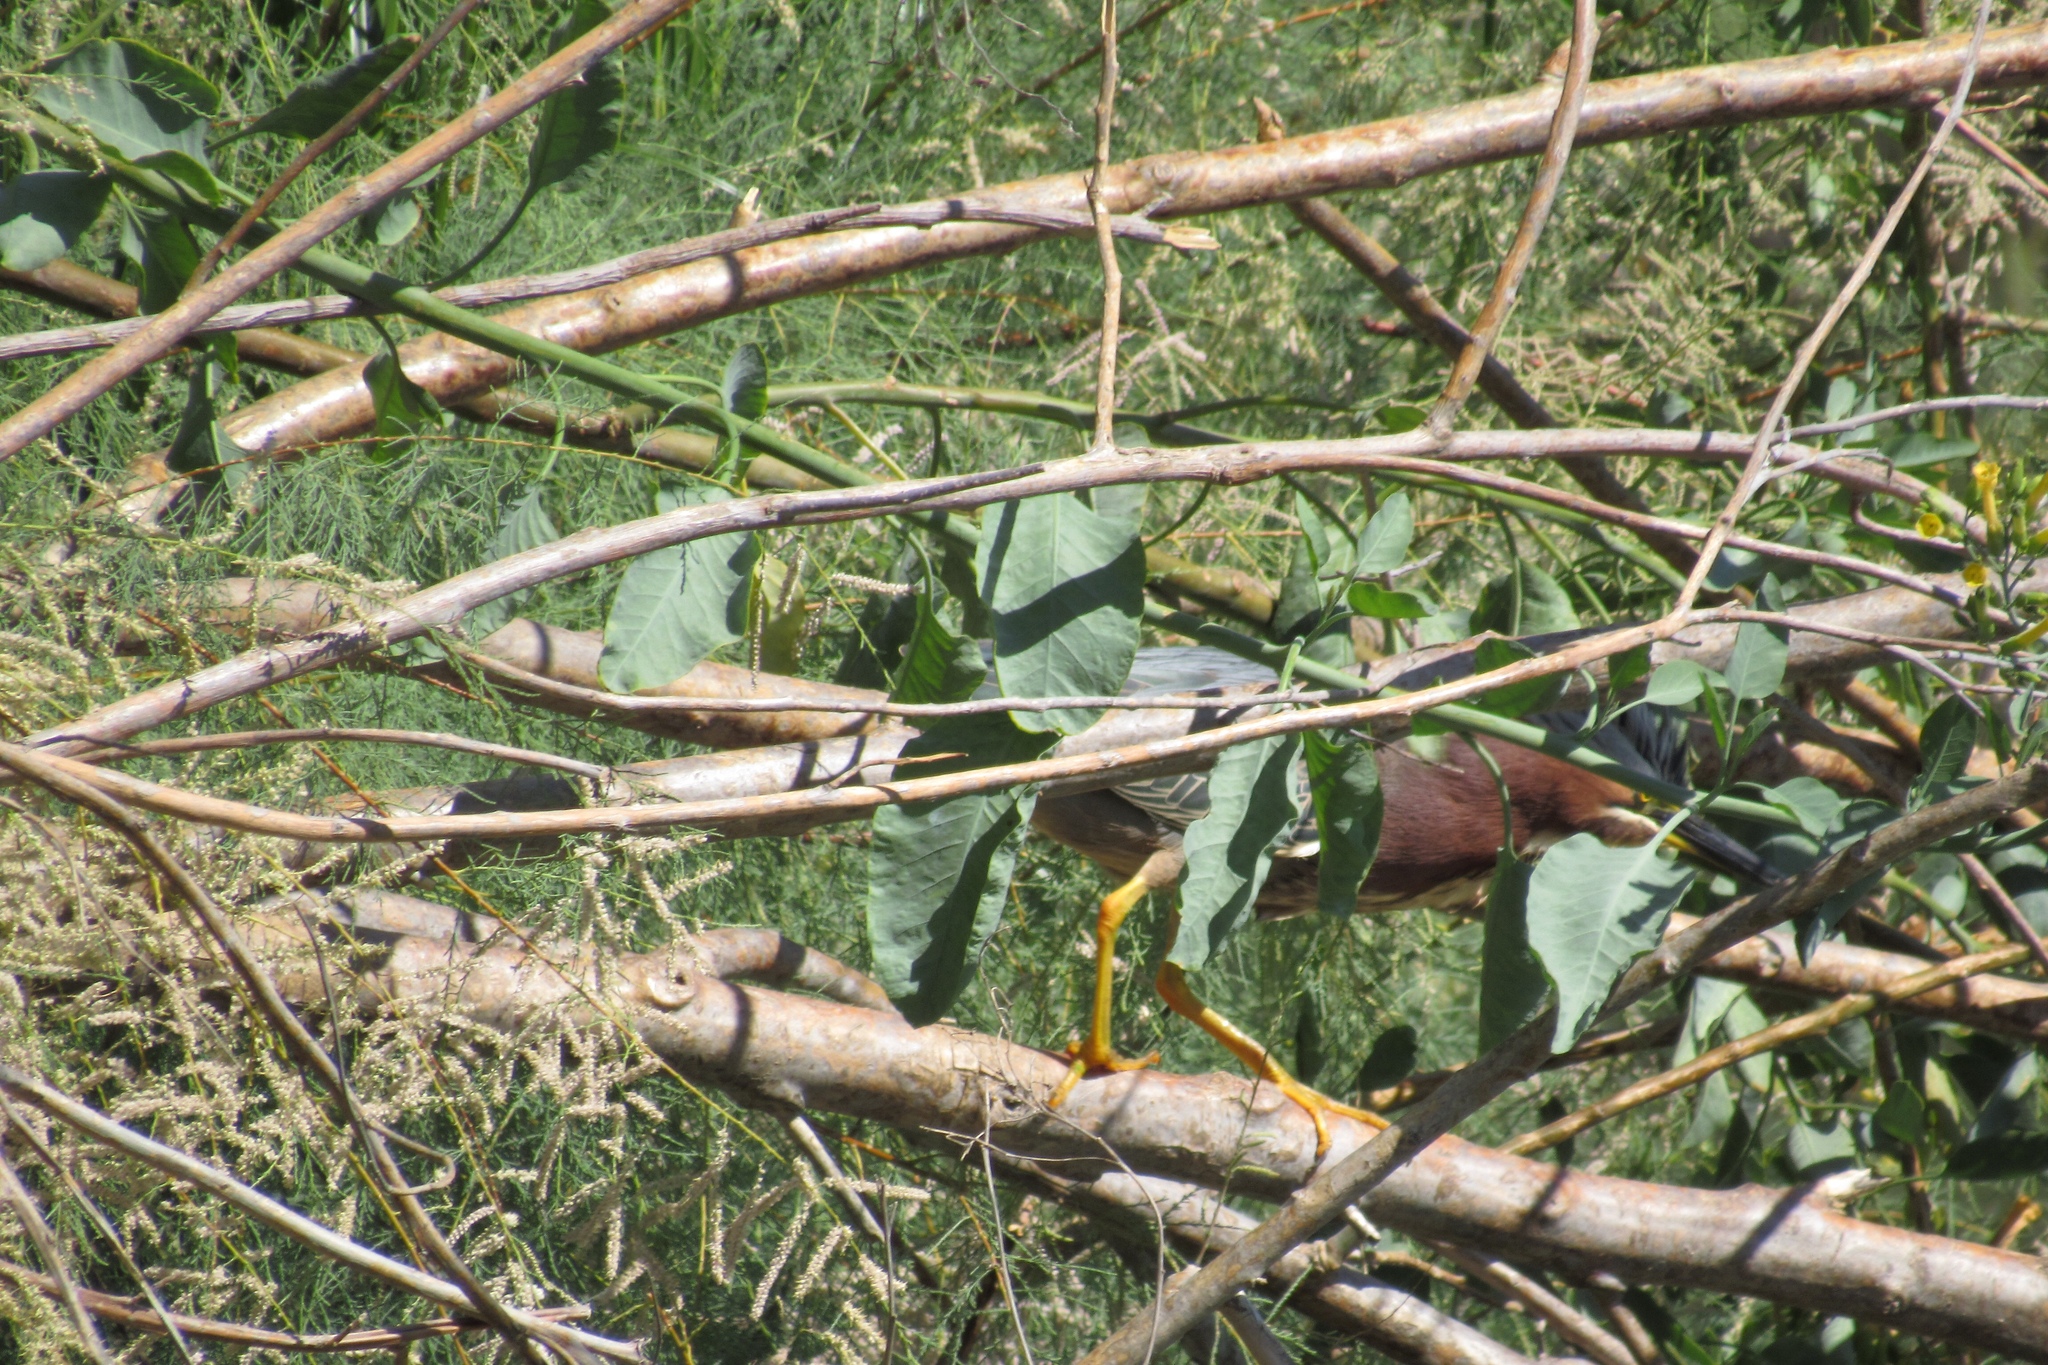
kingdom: Animalia
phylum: Chordata
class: Aves
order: Pelecaniformes
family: Ardeidae
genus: Butorides
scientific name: Butorides virescens
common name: Green heron
